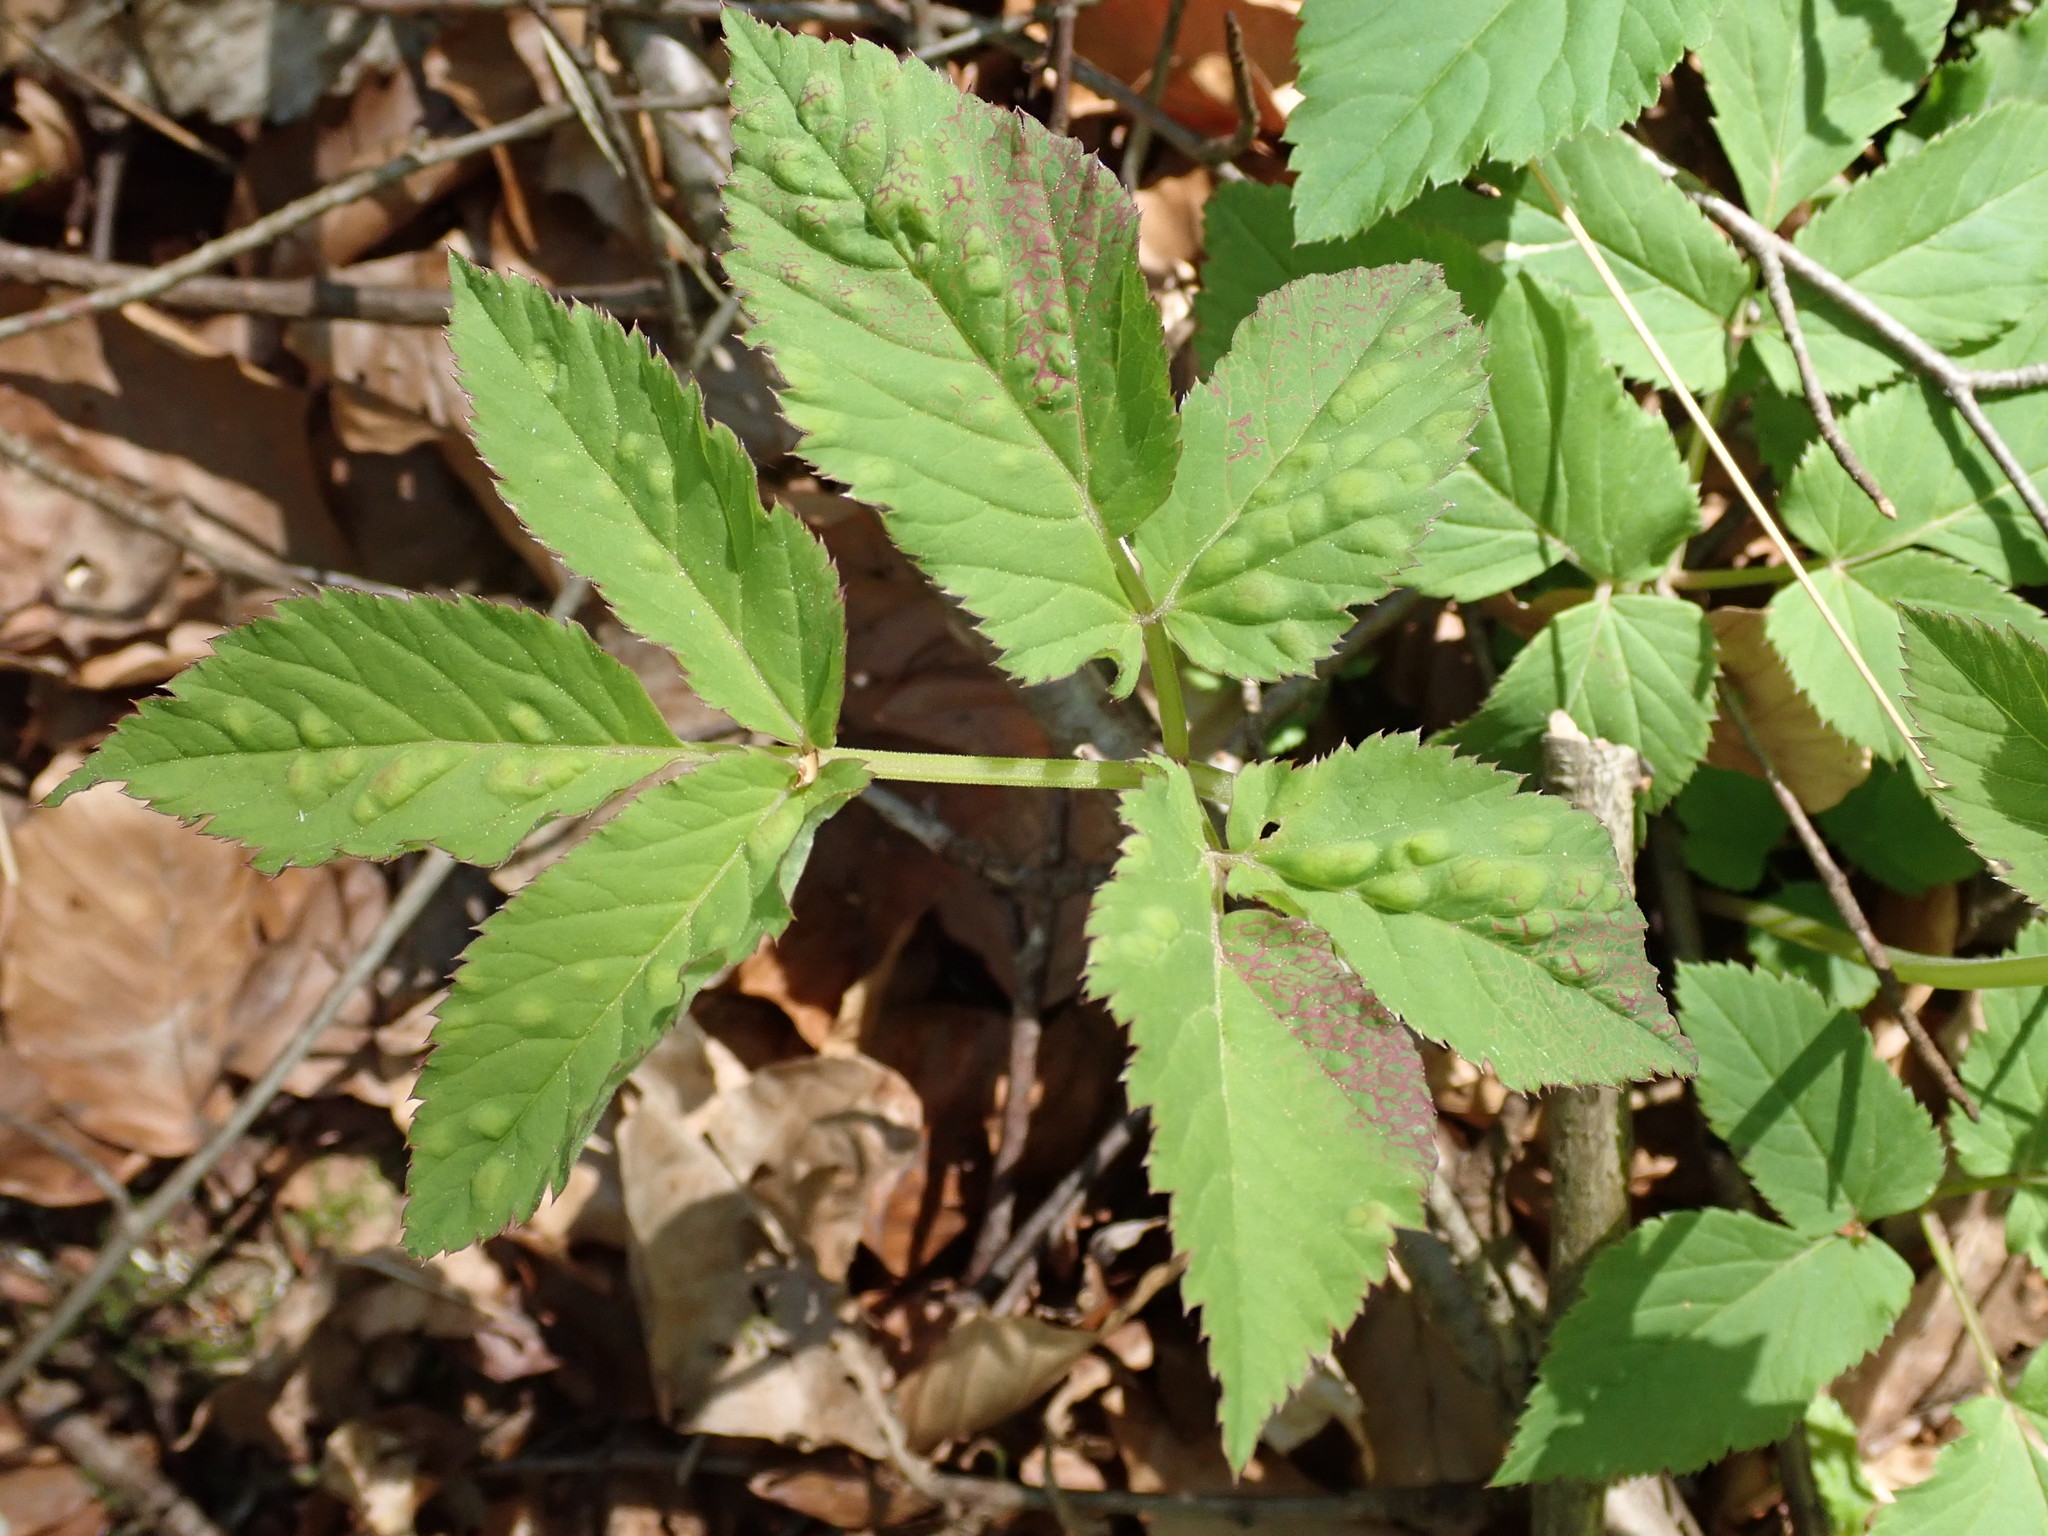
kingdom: Animalia
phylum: Arthropoda
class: Insecta
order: Hemiptera
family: Triozidae
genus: Trioza
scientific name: Trioza flavipennis
